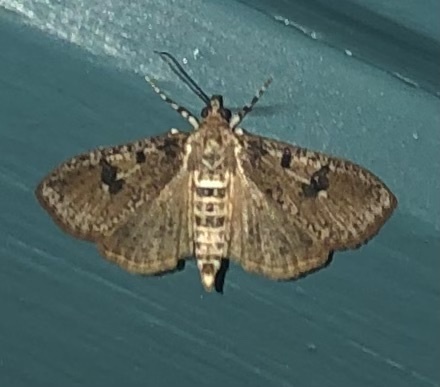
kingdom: Animalia
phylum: Arthropoda
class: Insecta
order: Lepidoptera
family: Crambidae
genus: Palpita
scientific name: Palpita magniferalis
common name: Splendid palpita moth
